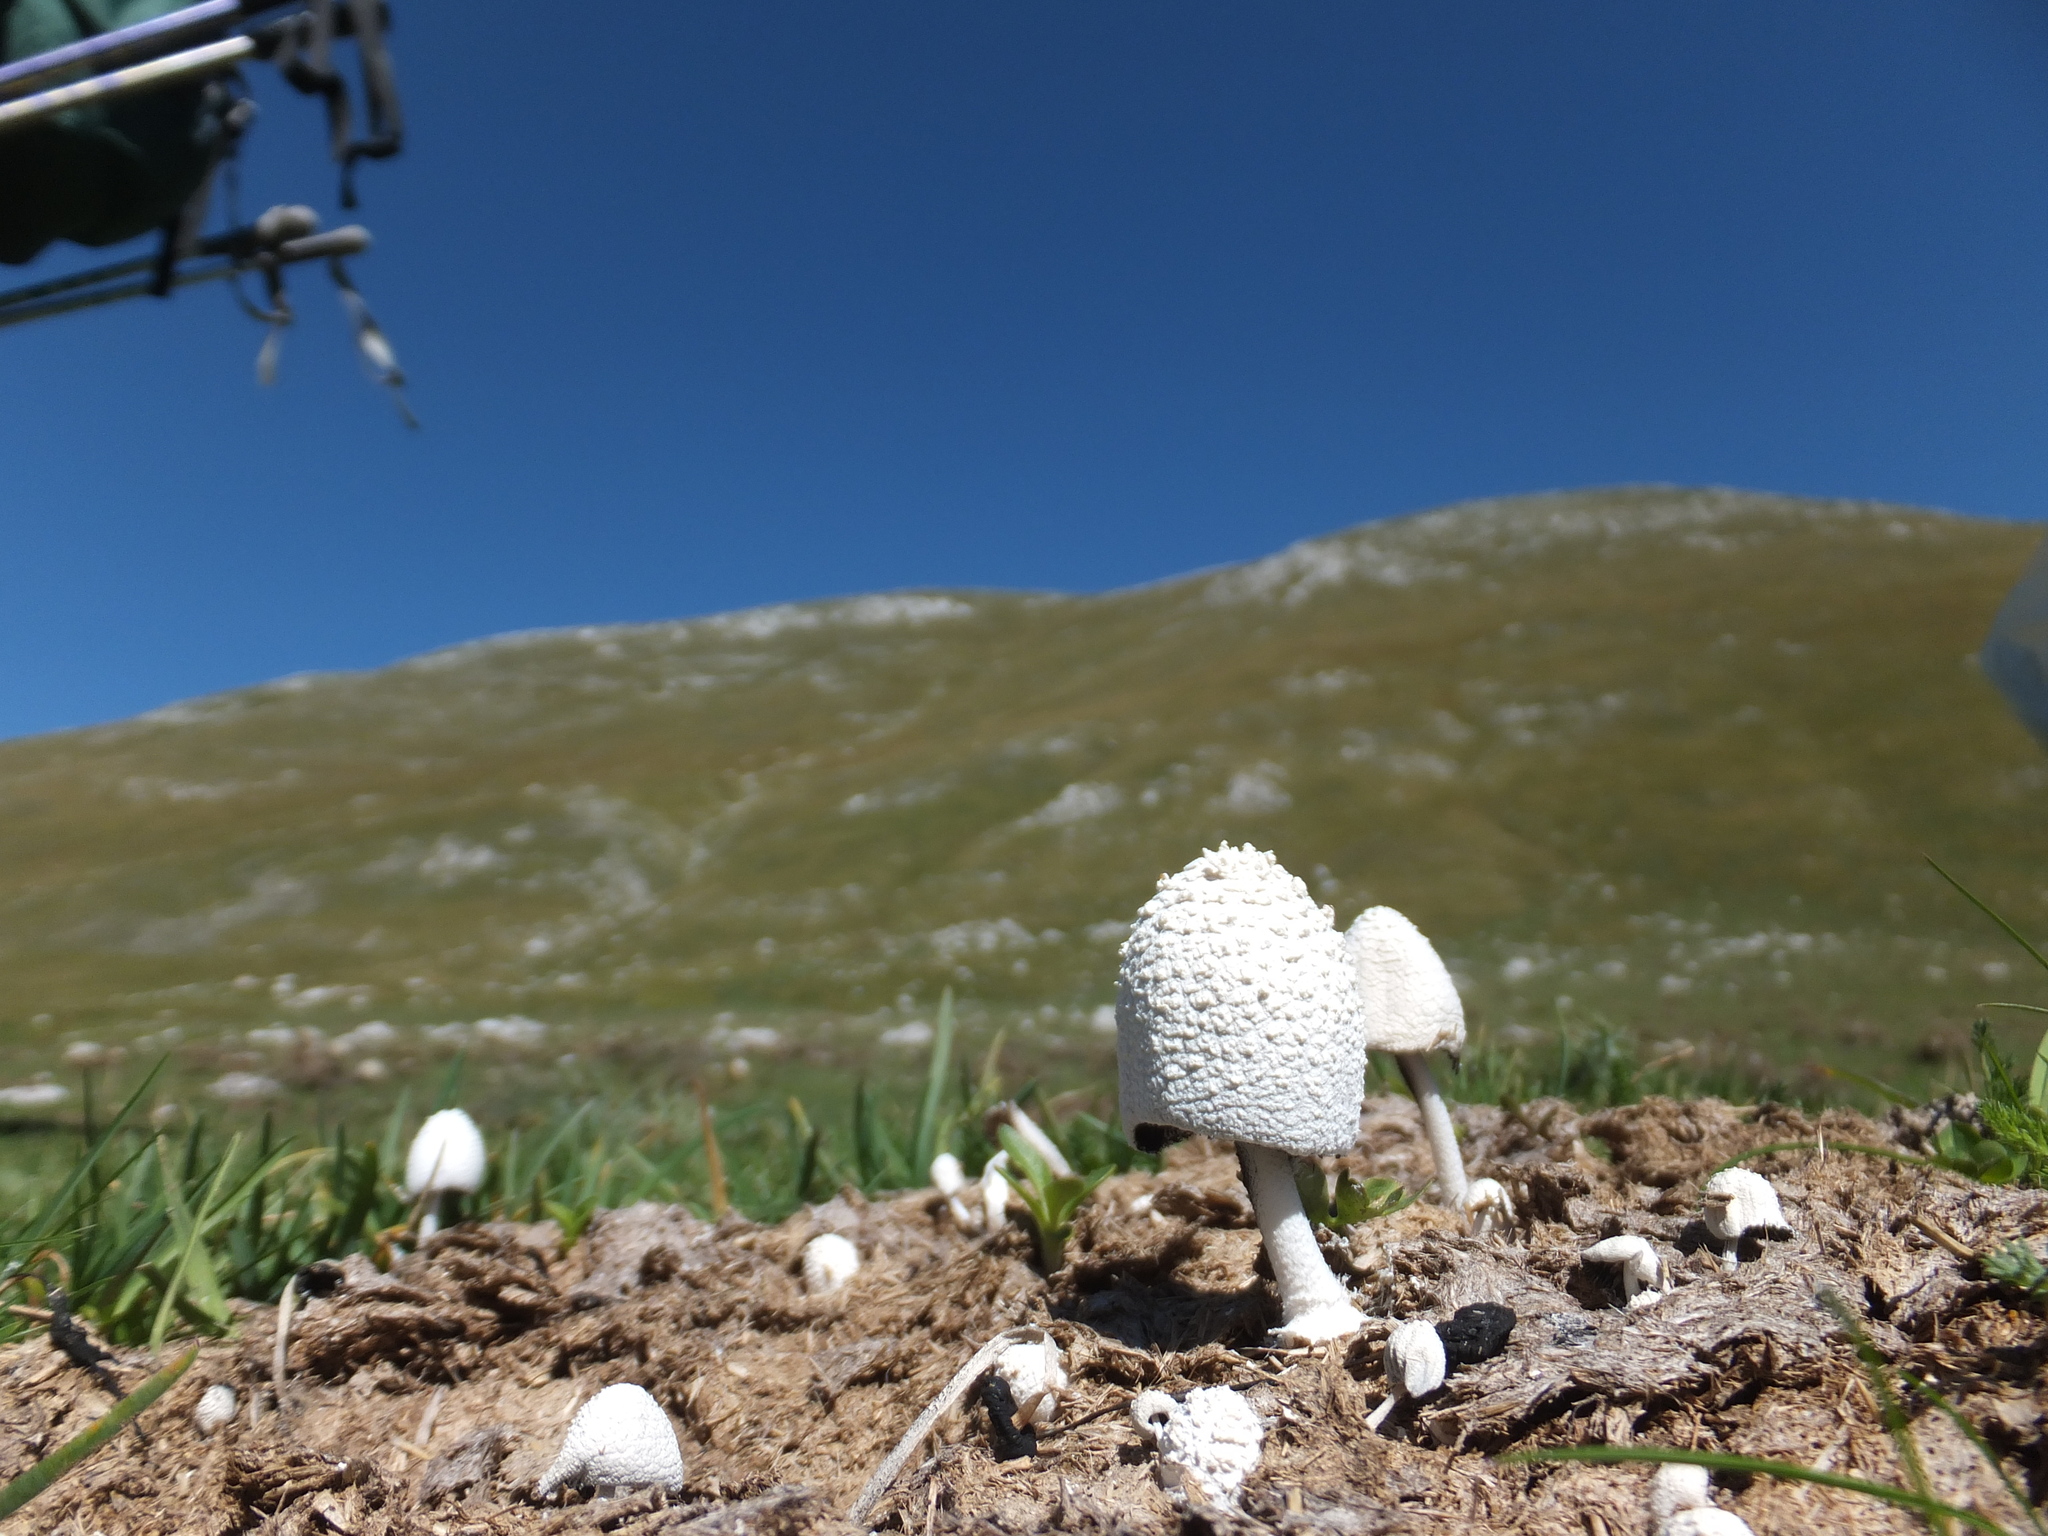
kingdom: Fungi
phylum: Basidiomycota
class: Agaricomycetes
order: Agaricales
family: Psathyrellaceae
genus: Coprinopsis
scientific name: Coprinopsis nivea
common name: Snowy inkcap
